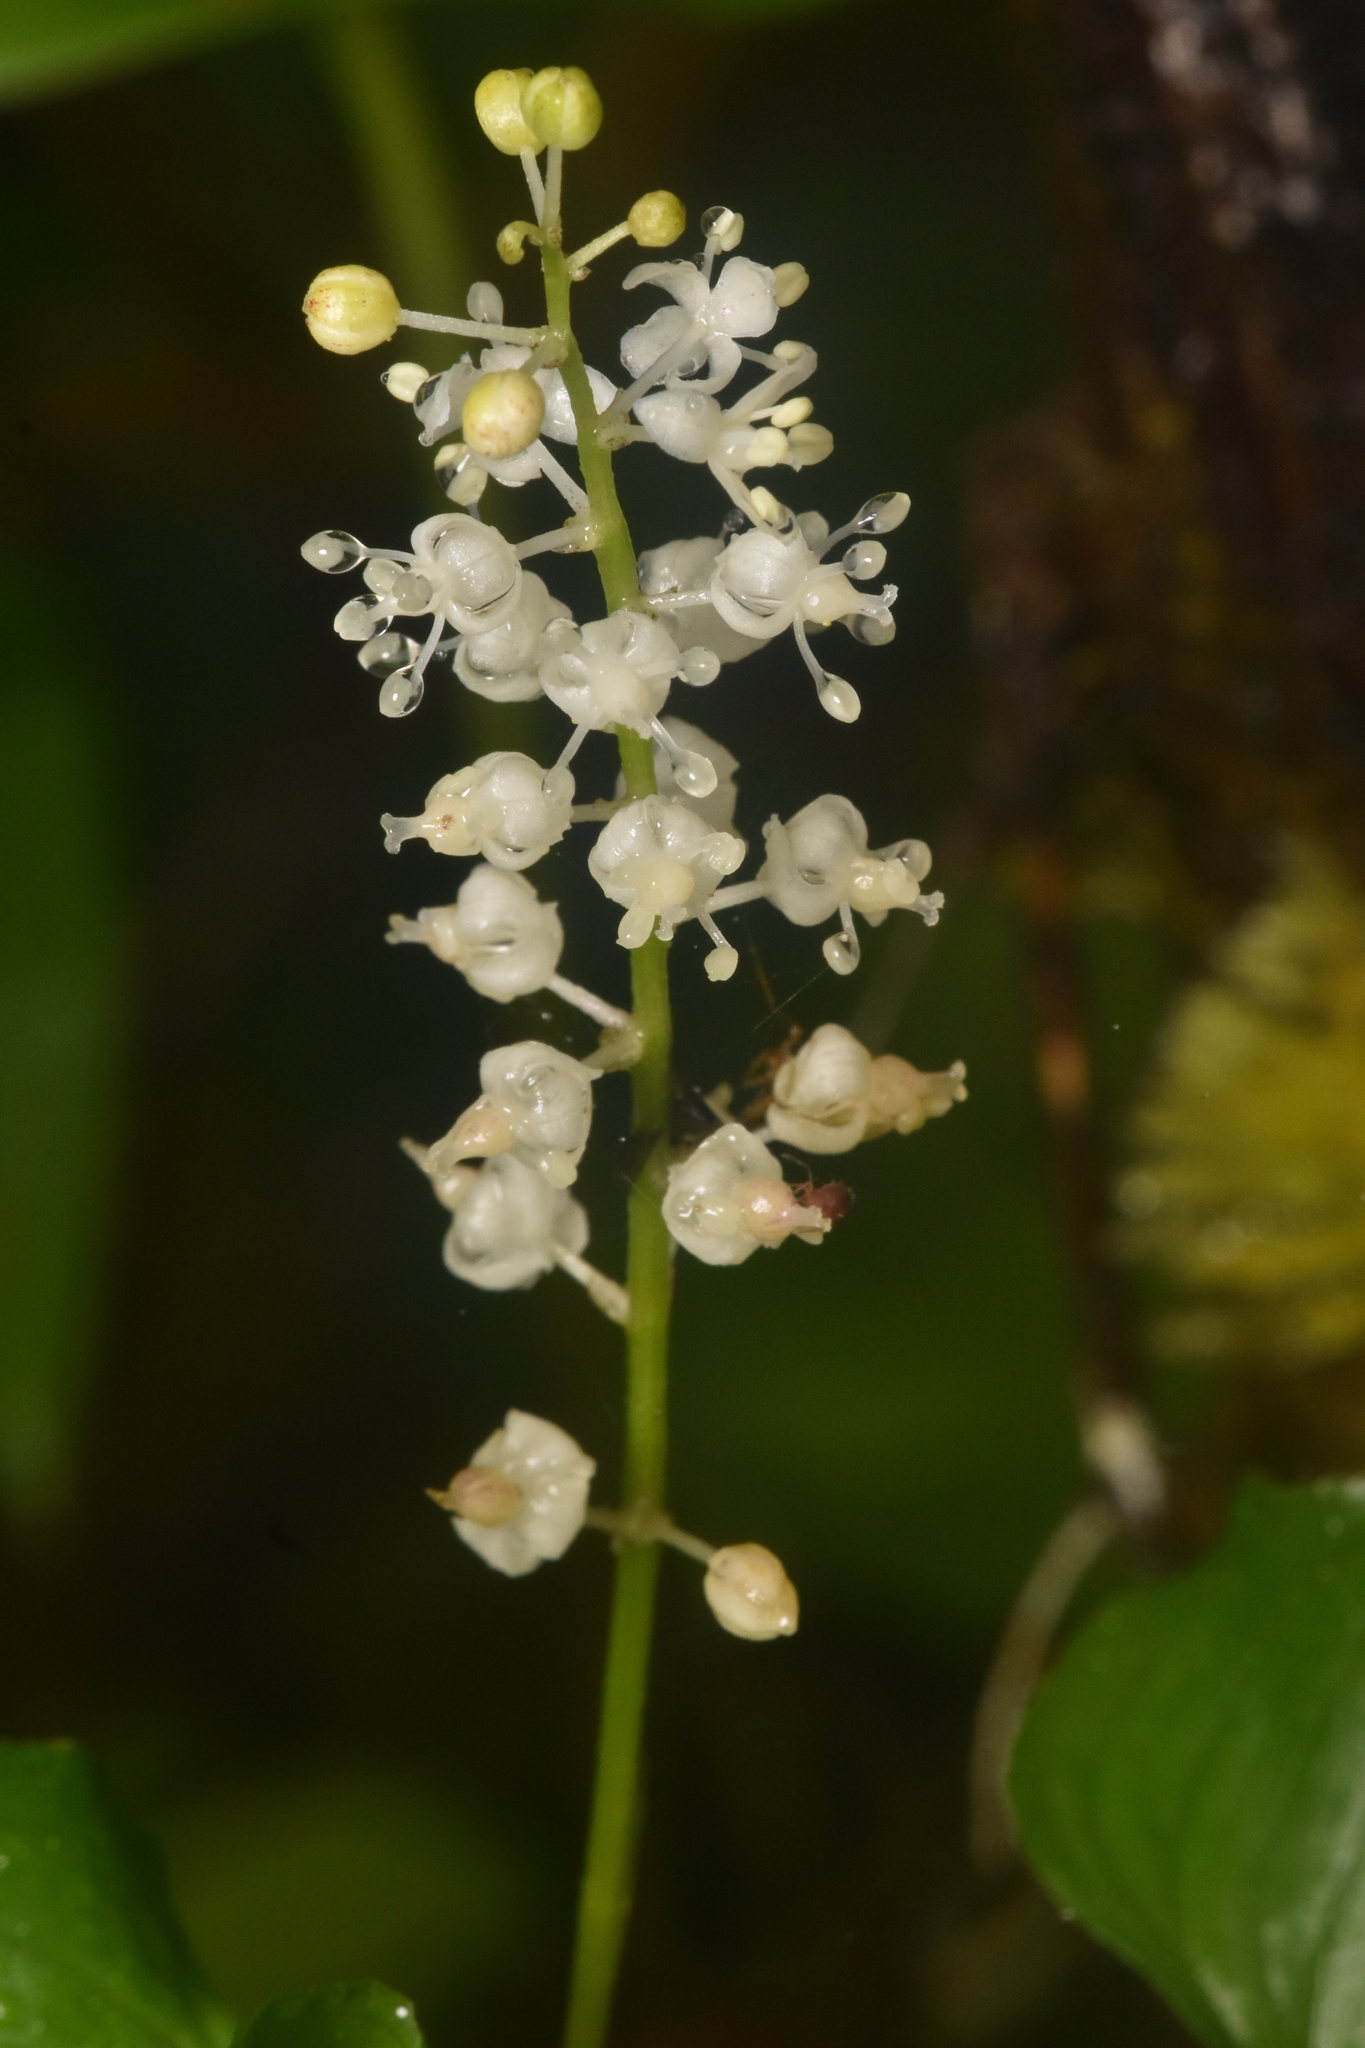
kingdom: Plantae
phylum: Tracheophyta
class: Liliopsida
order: Asparagales
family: Asparagaceae
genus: Maianthemum
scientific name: Maianthemum dilatatum
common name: False lily-of-the-valley
